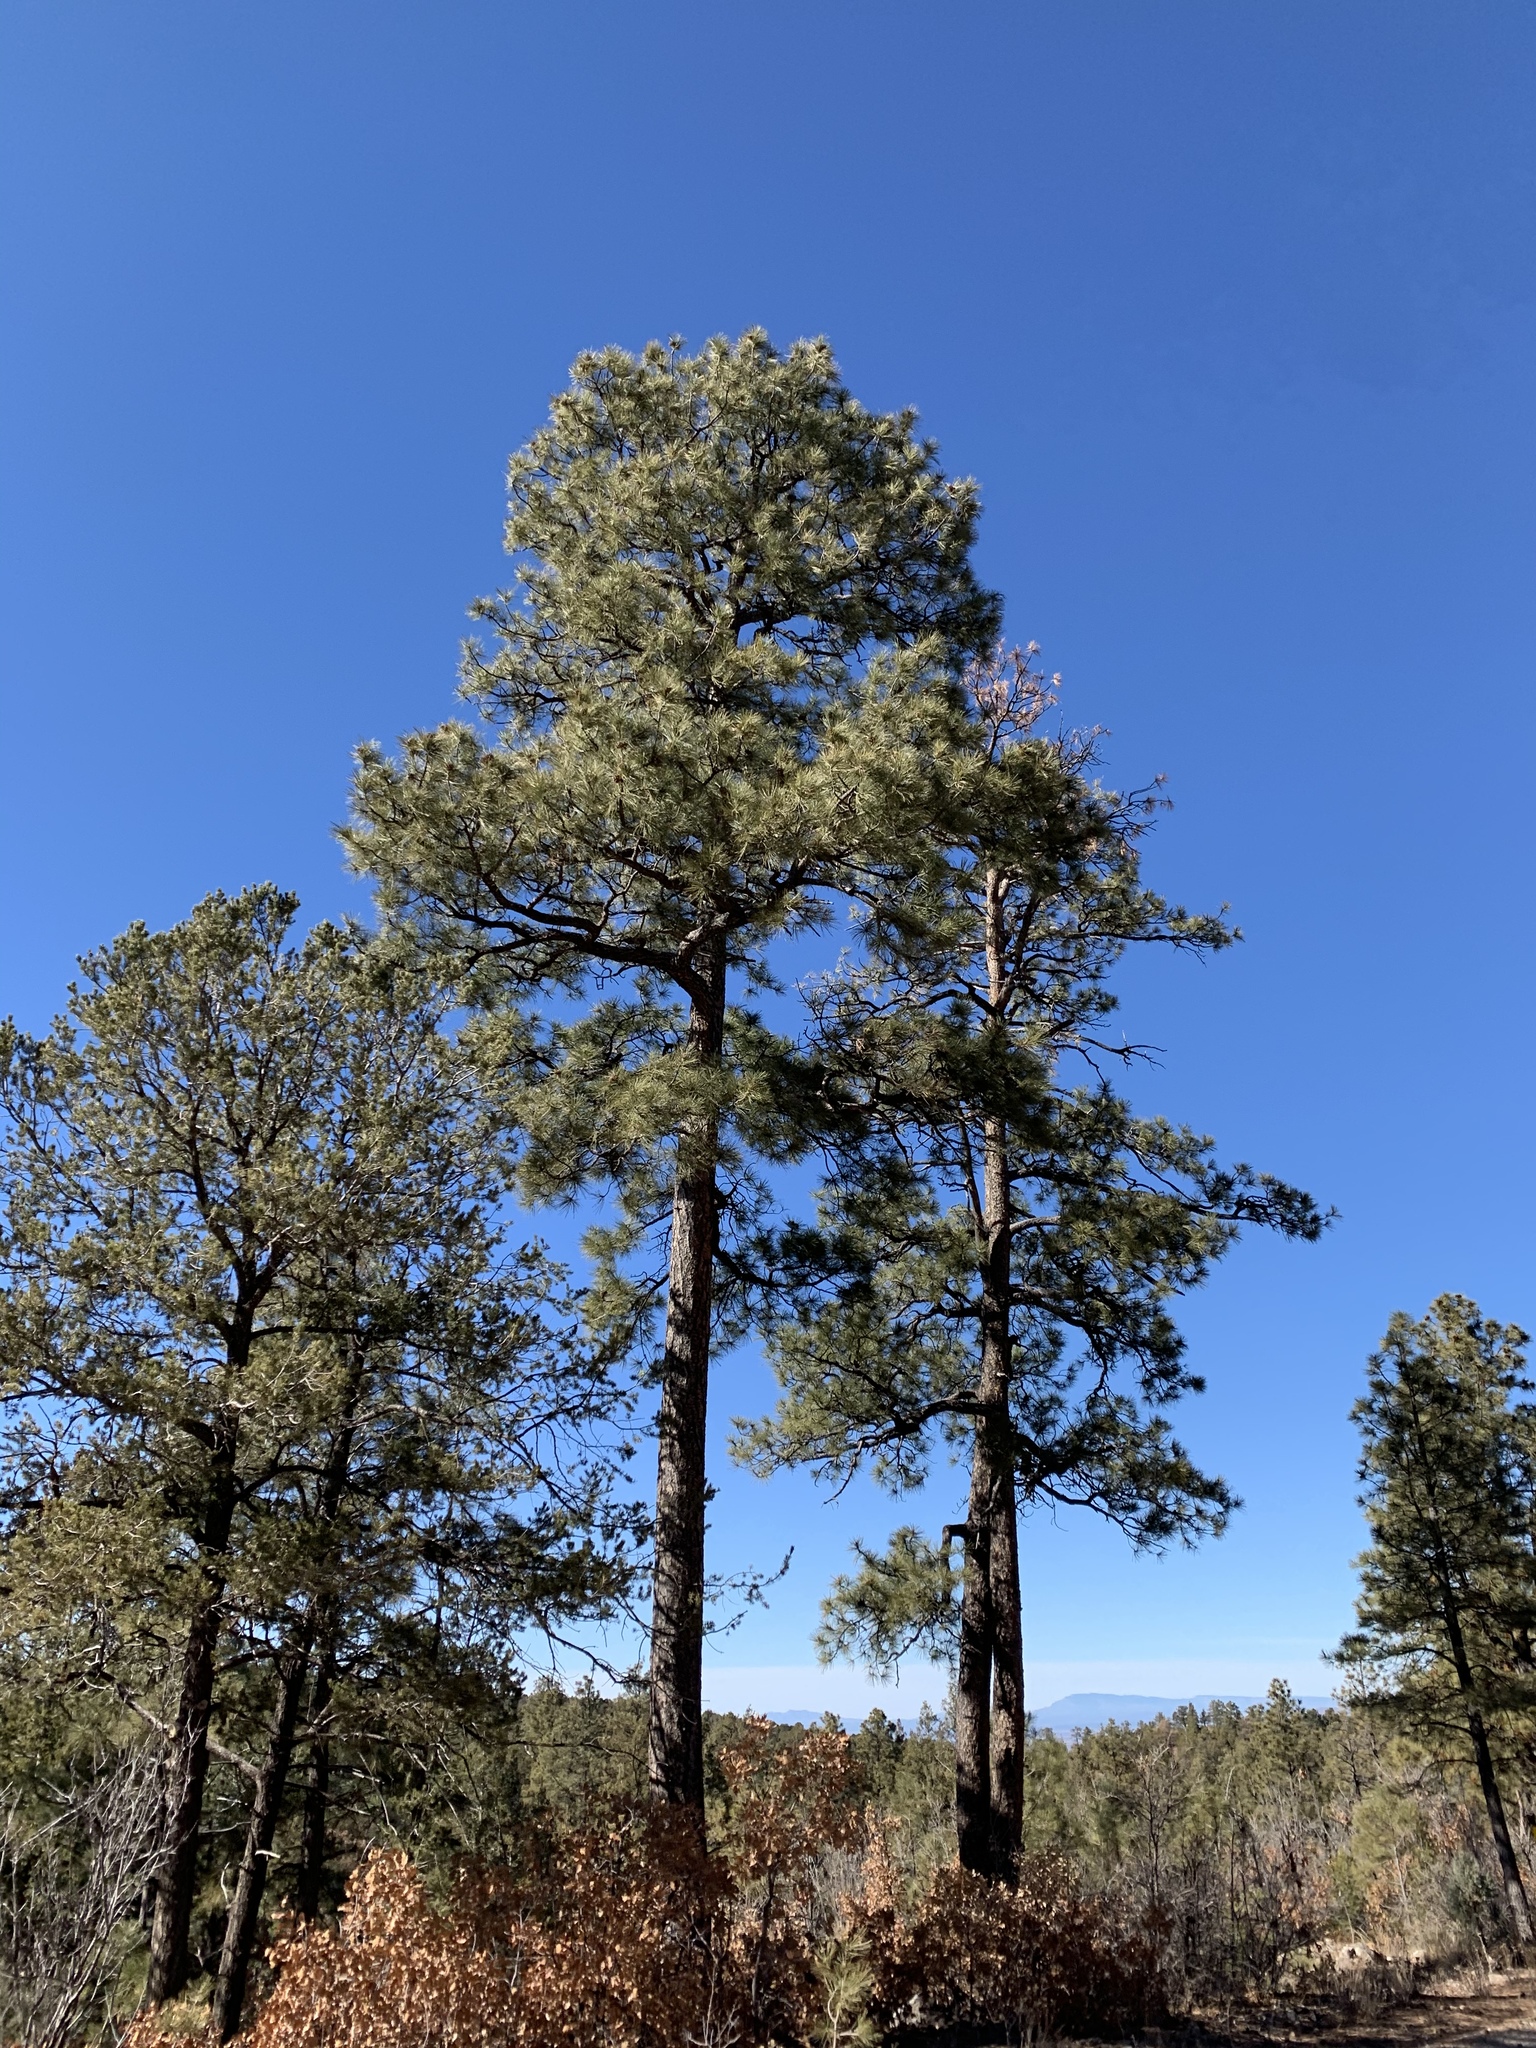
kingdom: Plantae
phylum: Tracheophyta
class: Pinopsida
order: Pinales
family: Pinaceae
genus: Pinus
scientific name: Pinus ponderosa
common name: Western yellow-pine
